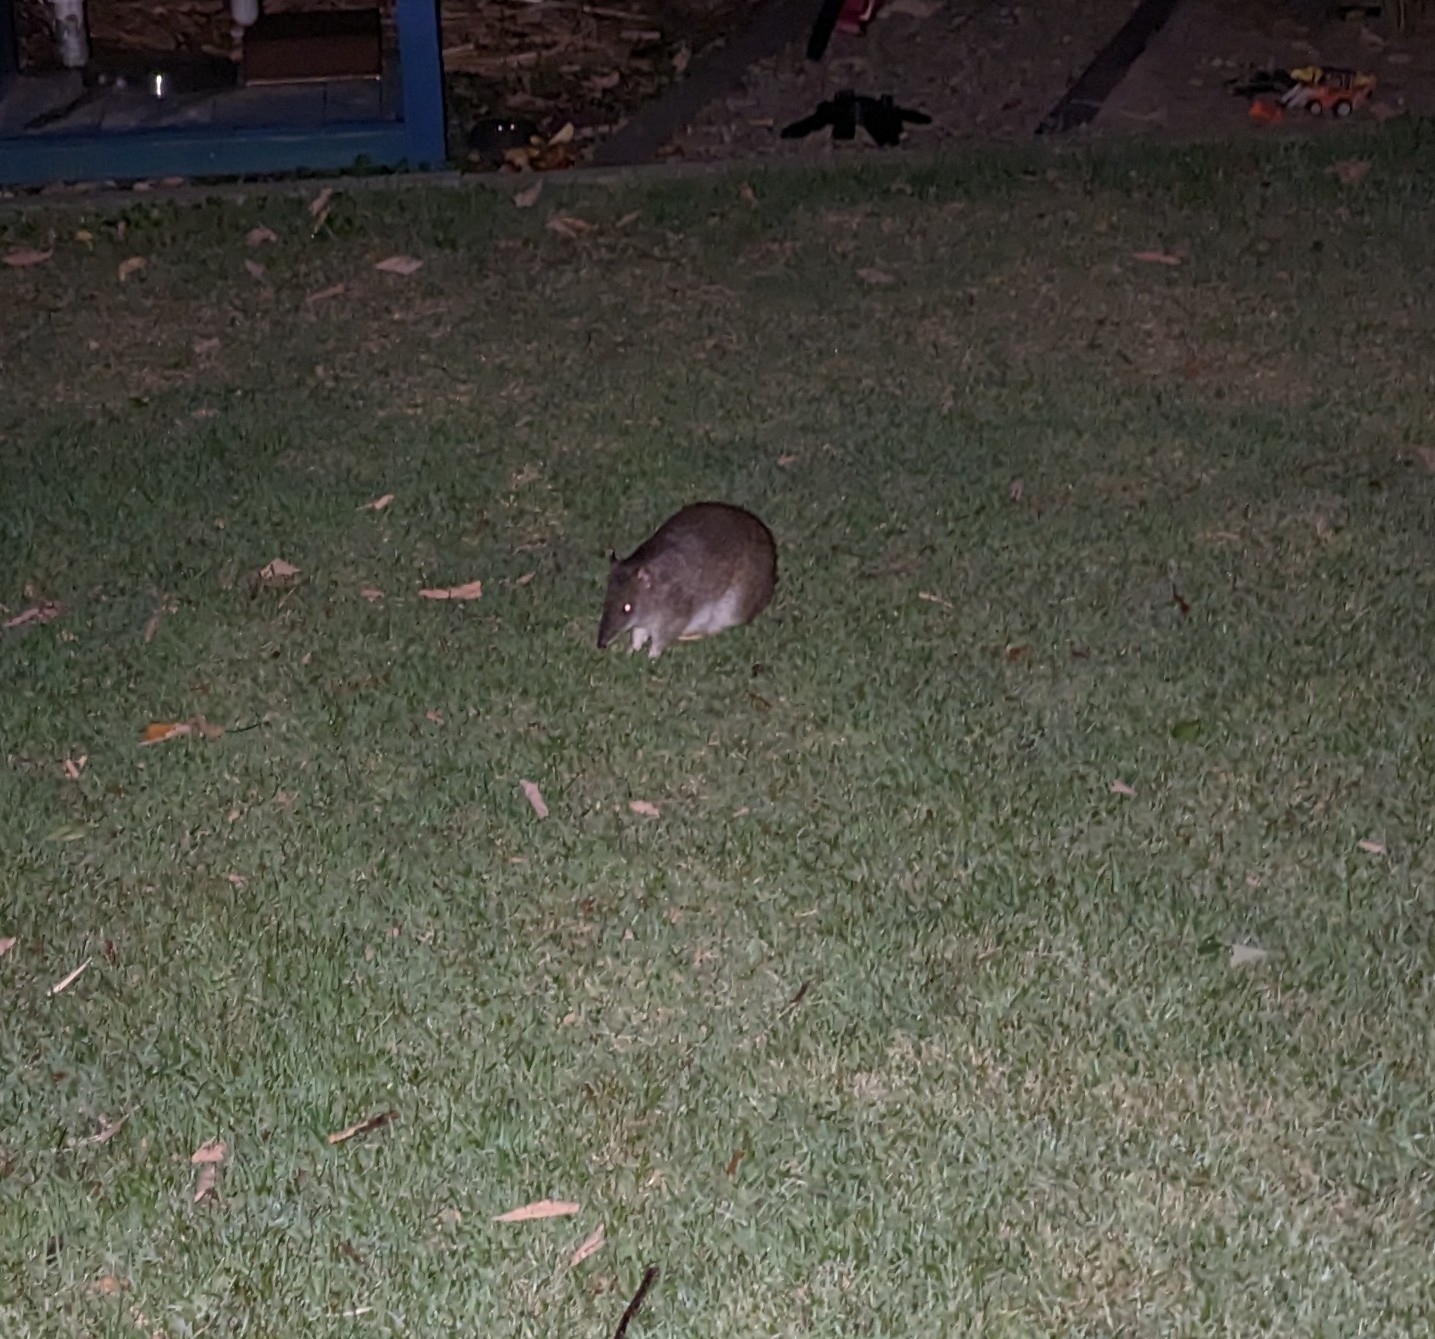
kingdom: Animalia
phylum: Chordata
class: Mammalia
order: Peramelemorphia
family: Peramelidae
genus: Isoodon
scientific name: Isoodon macrourus
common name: Northern brown bandicoot
